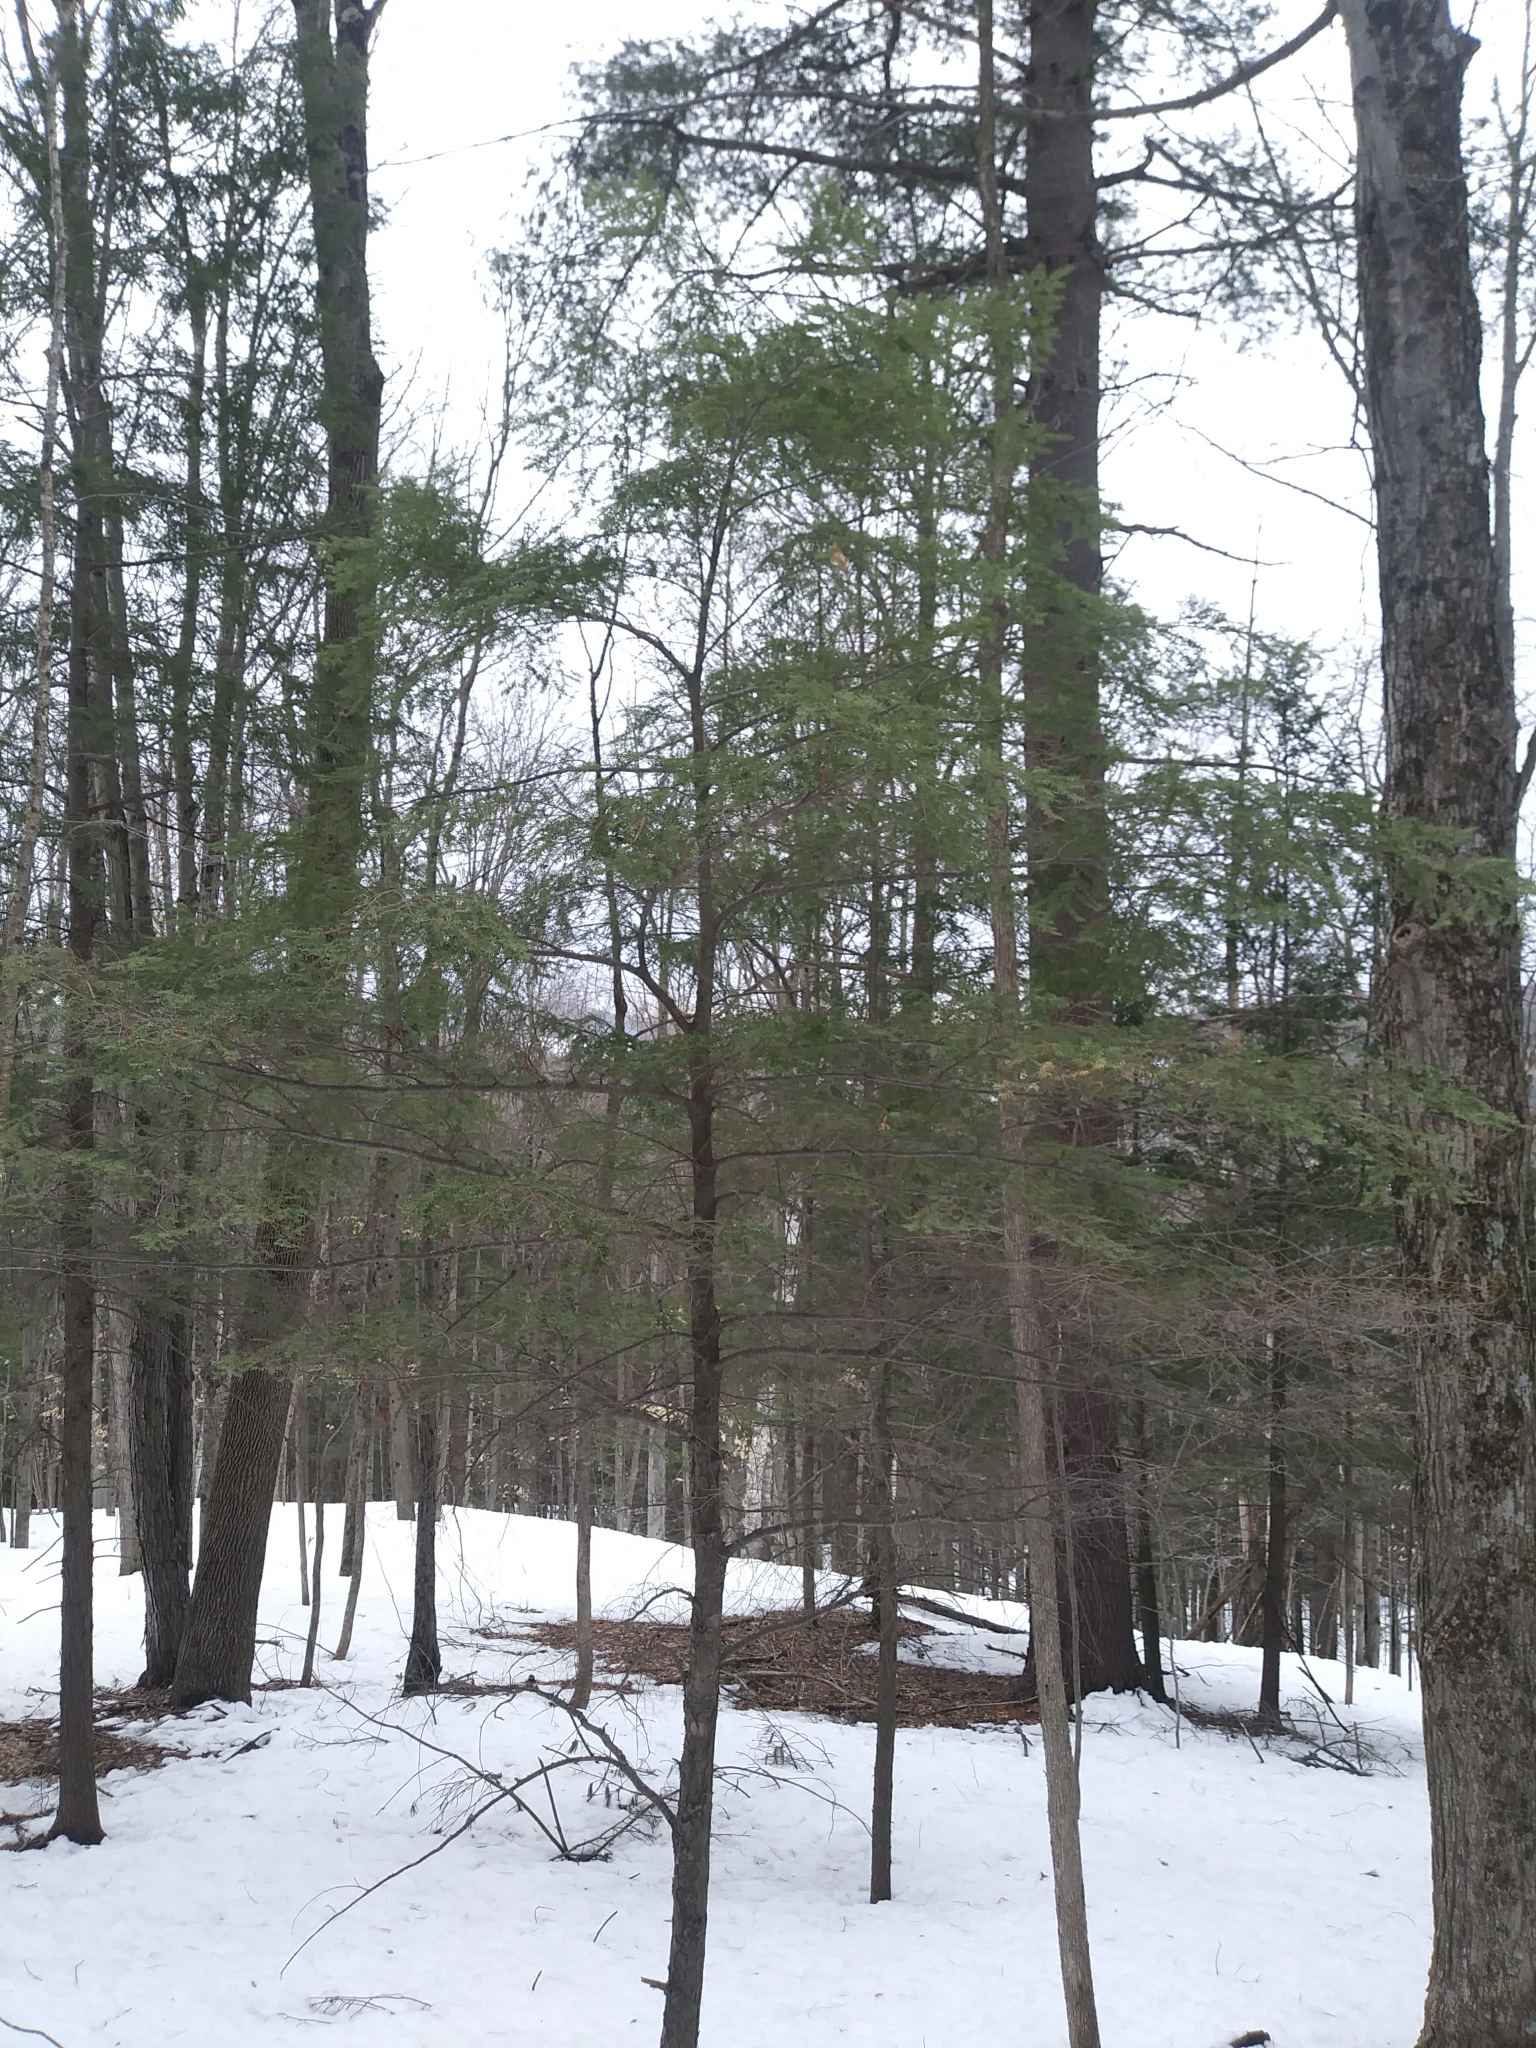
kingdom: Plantae
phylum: Tracheophyta
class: Pinopsida
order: Pinales
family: Pinaceae
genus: Tsuga
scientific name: Tsuga canadensis
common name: Eastern hemlock
